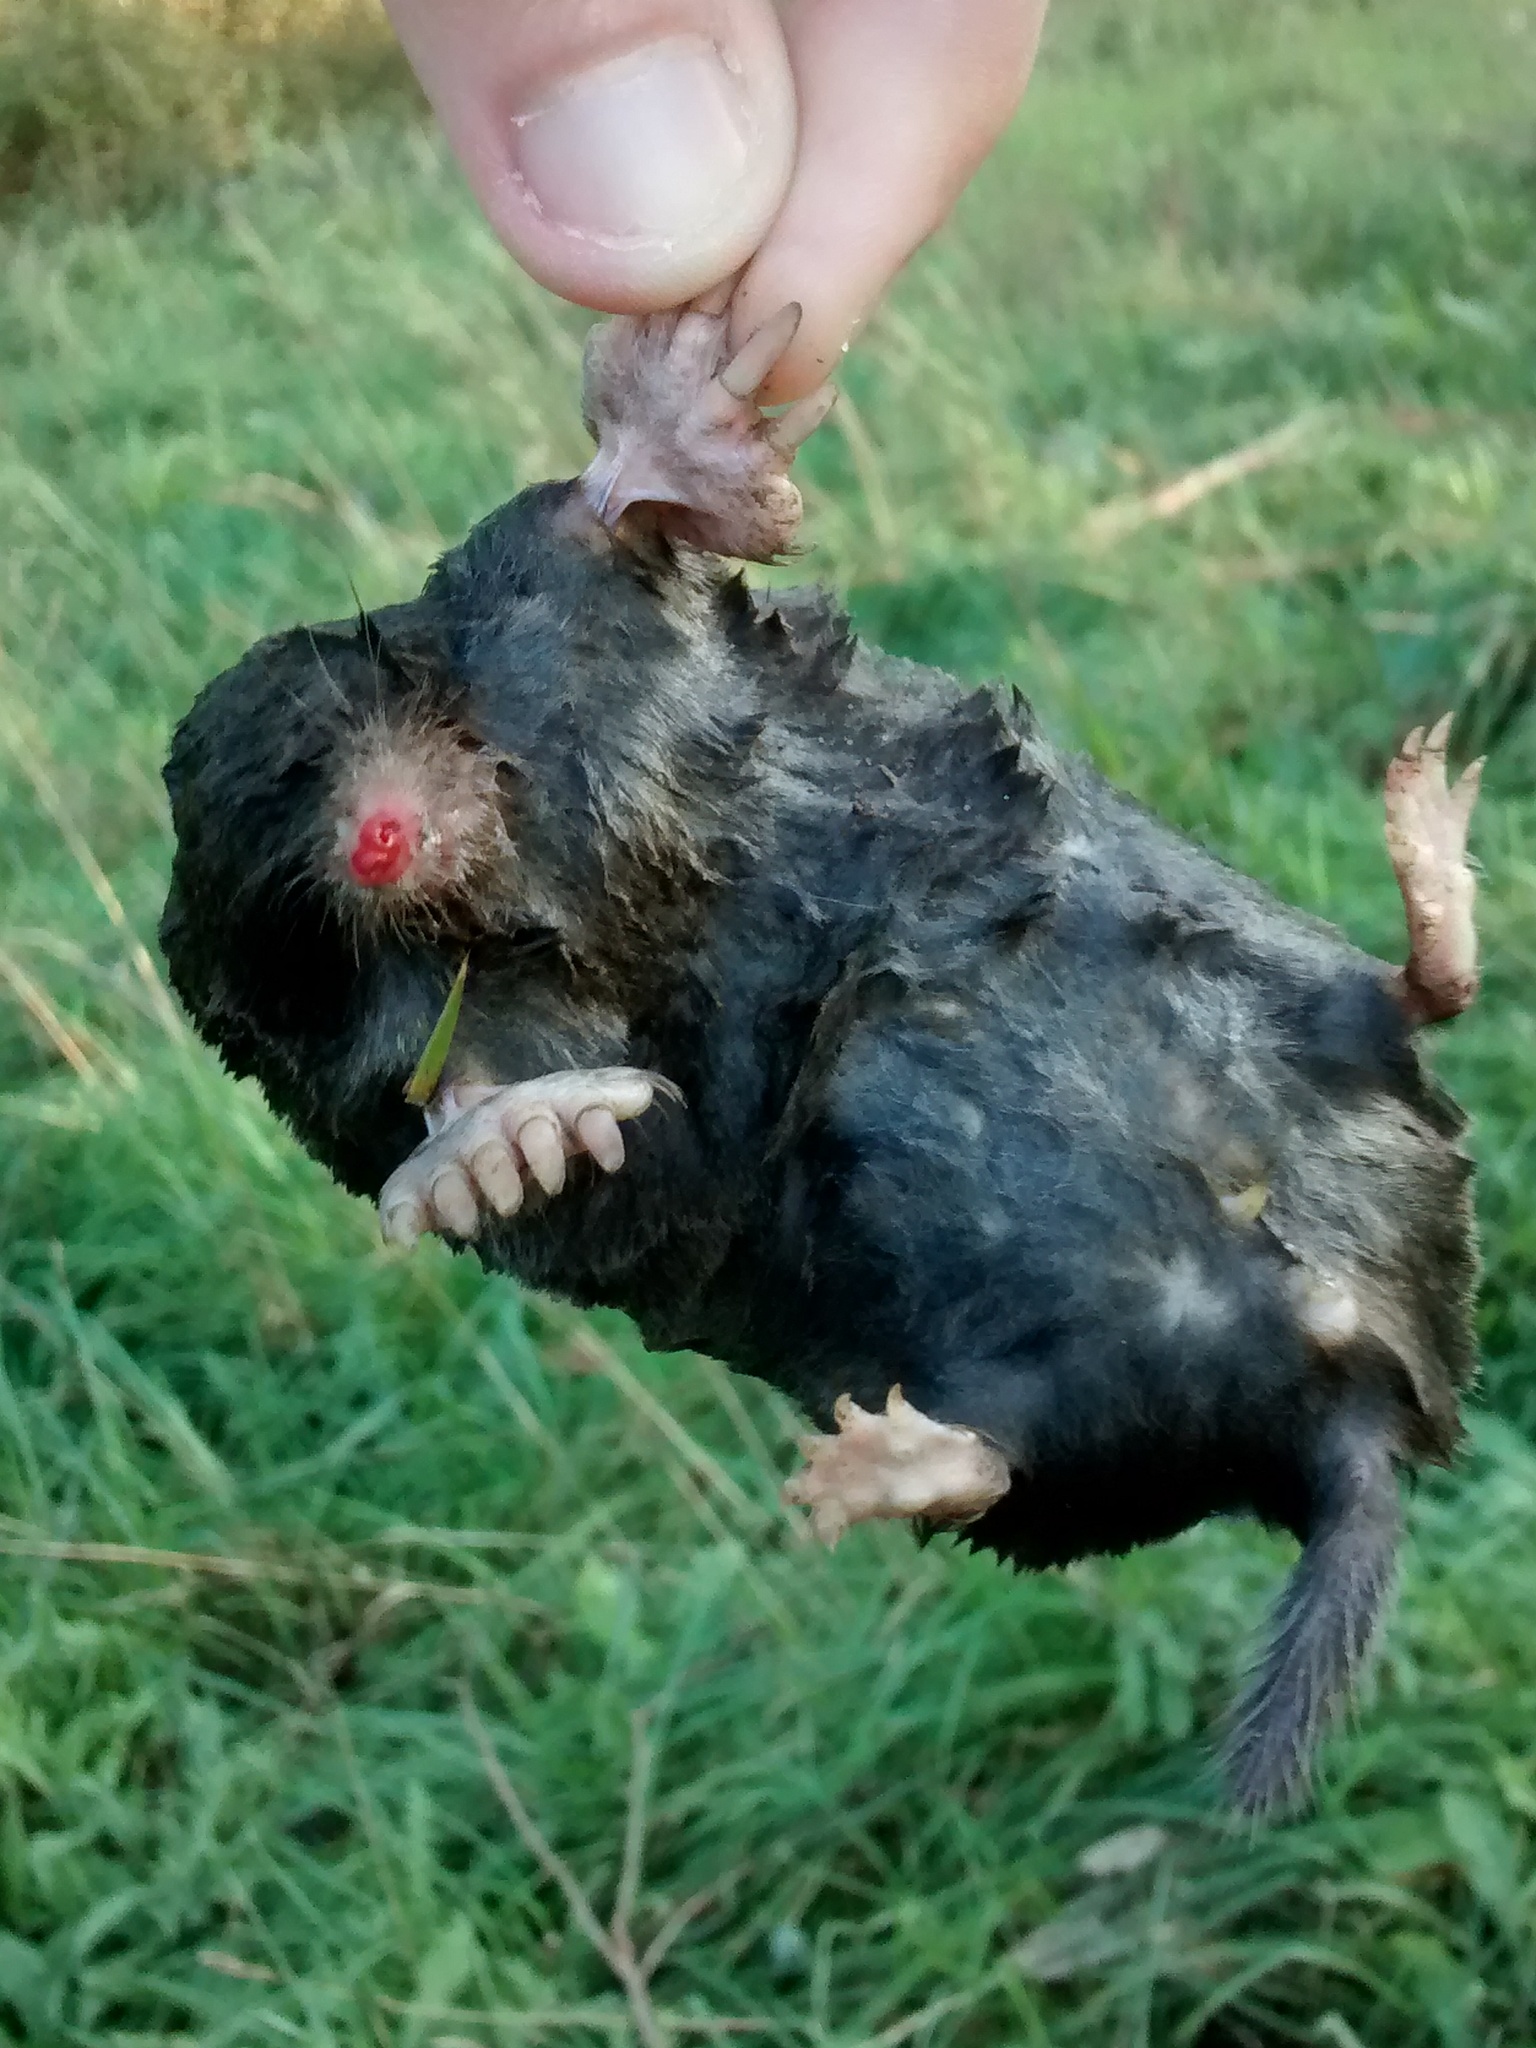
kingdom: Animalia
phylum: Chordata
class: Mammalia
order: Soricomorpha
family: Talpidae
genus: Talpa
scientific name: Talpa occidentalis
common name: Iberian mole
